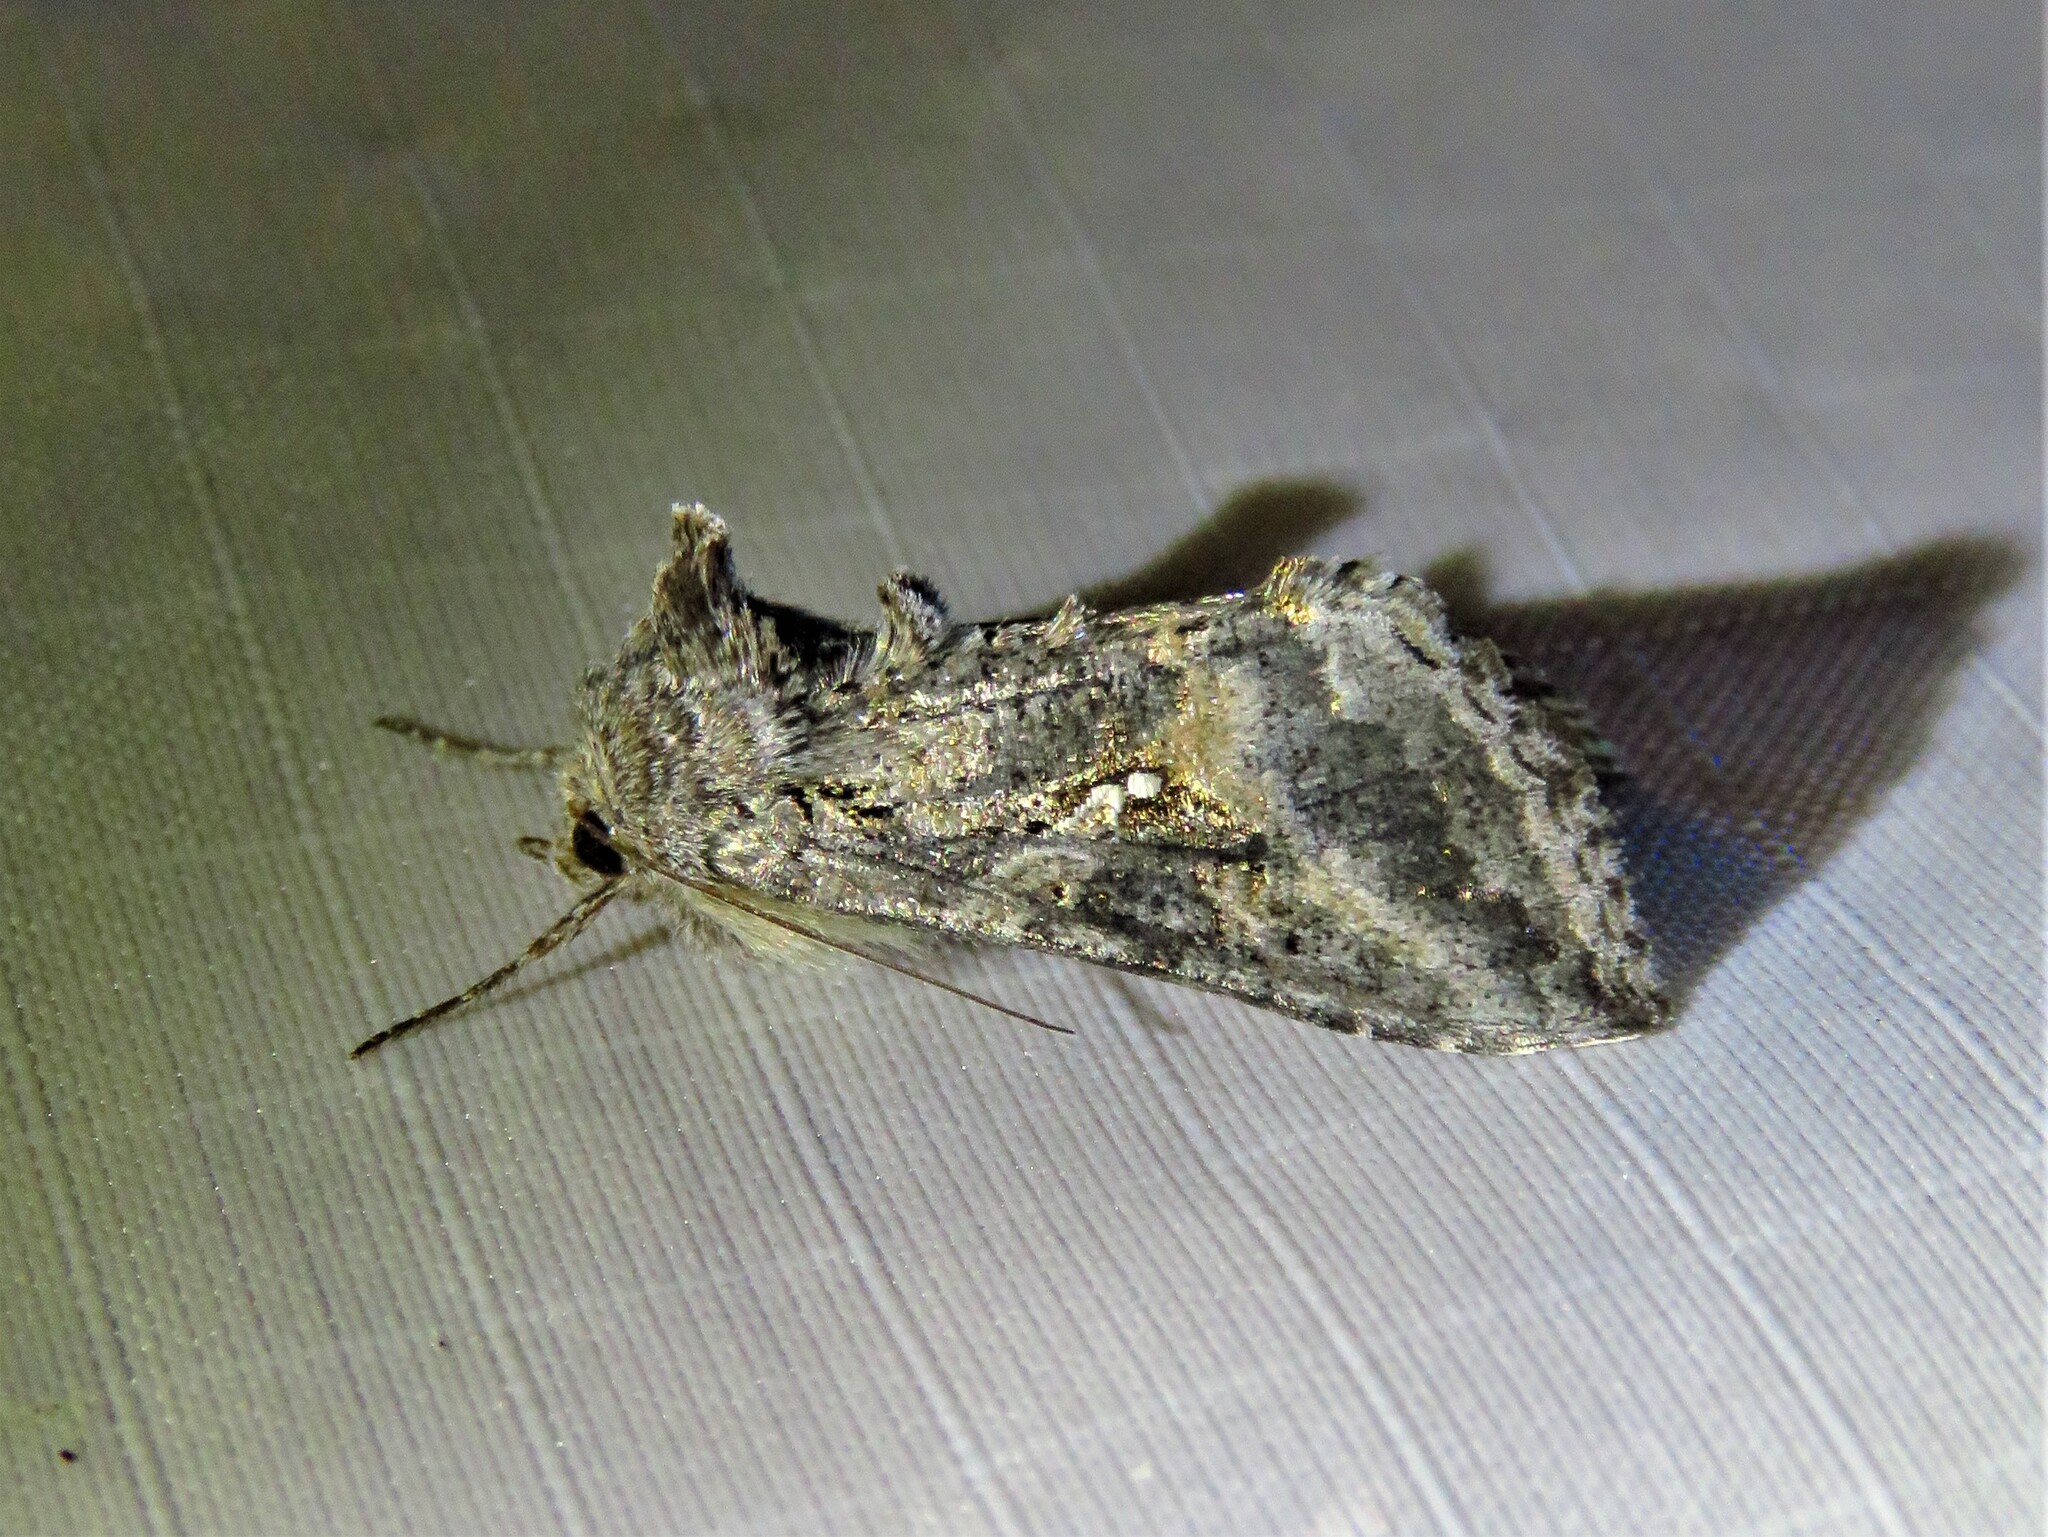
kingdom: Animalia
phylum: Arthropoda
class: Insecta
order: Lepidoptera
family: Noctuidae
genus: Rachiplusia
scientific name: Rachiplusia ou
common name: Gray looper moth
